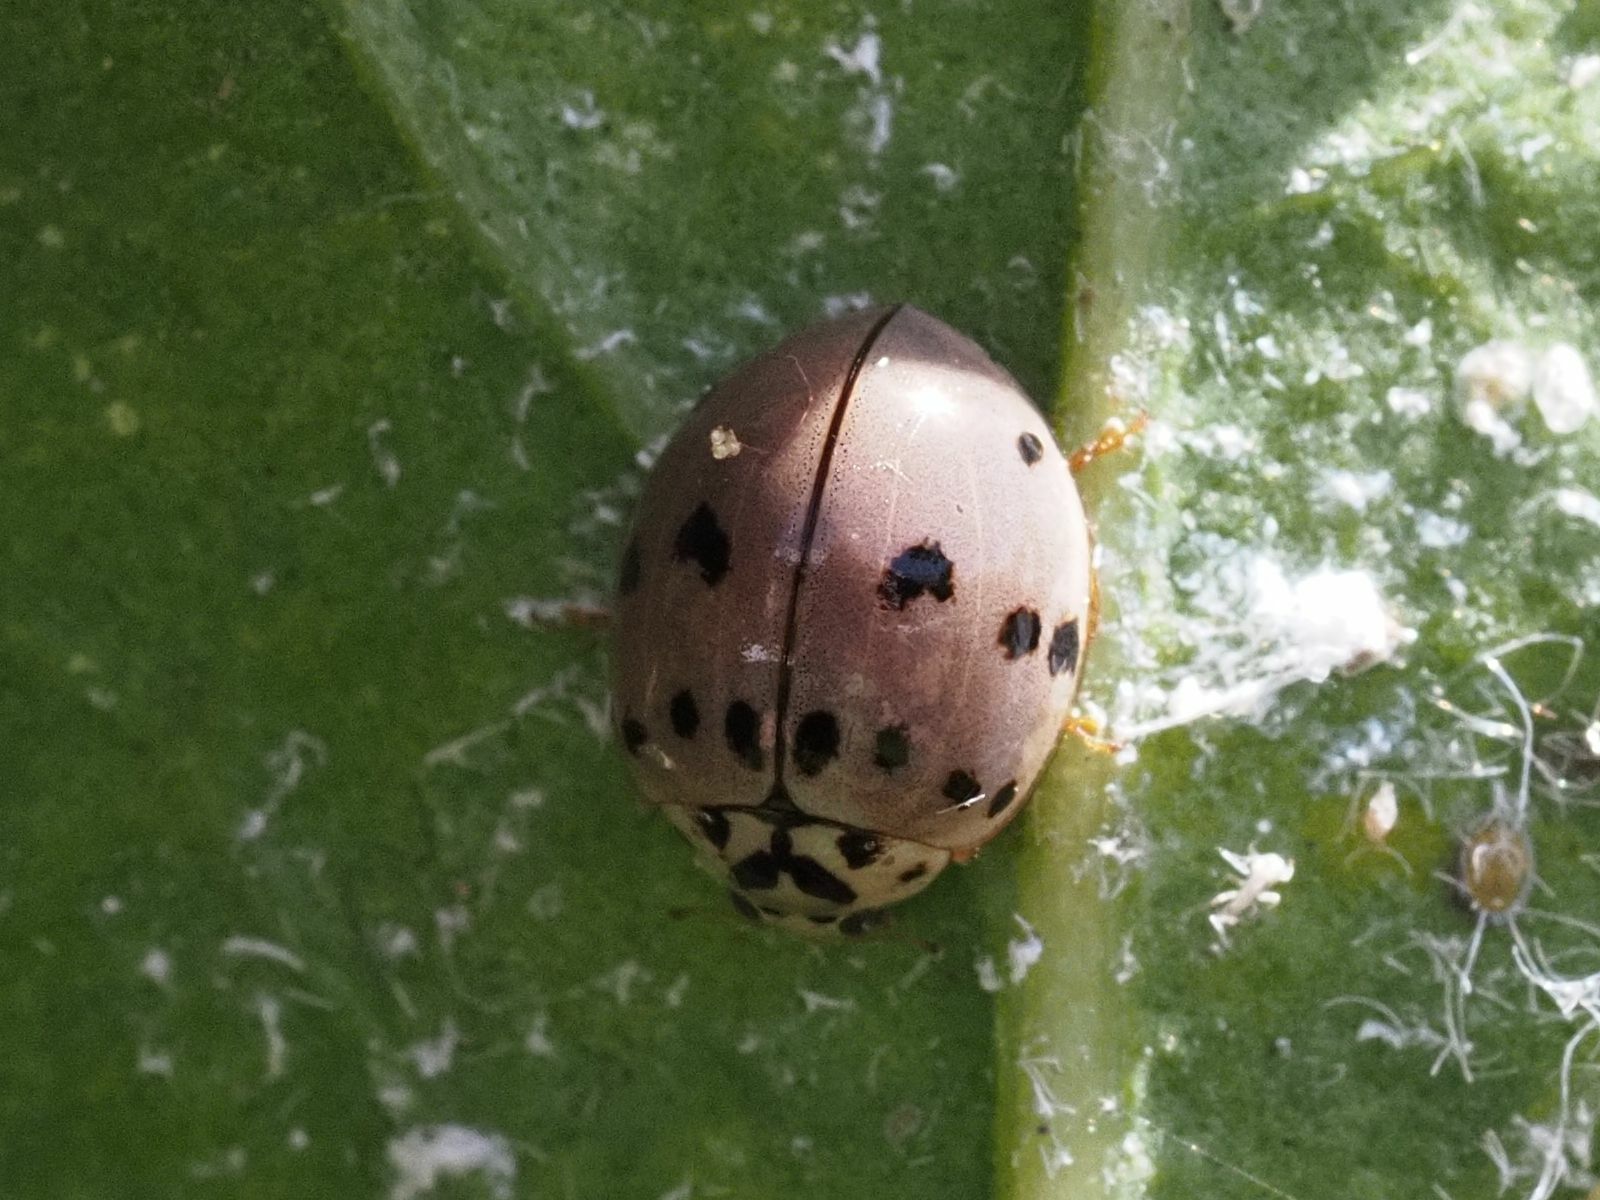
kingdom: Animalia
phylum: Arthropoda
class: Insecta
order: Coleoptera
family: Coccinellidae
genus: Olla
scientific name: Olla v-nigrum
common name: Ashy gray lady beetle
